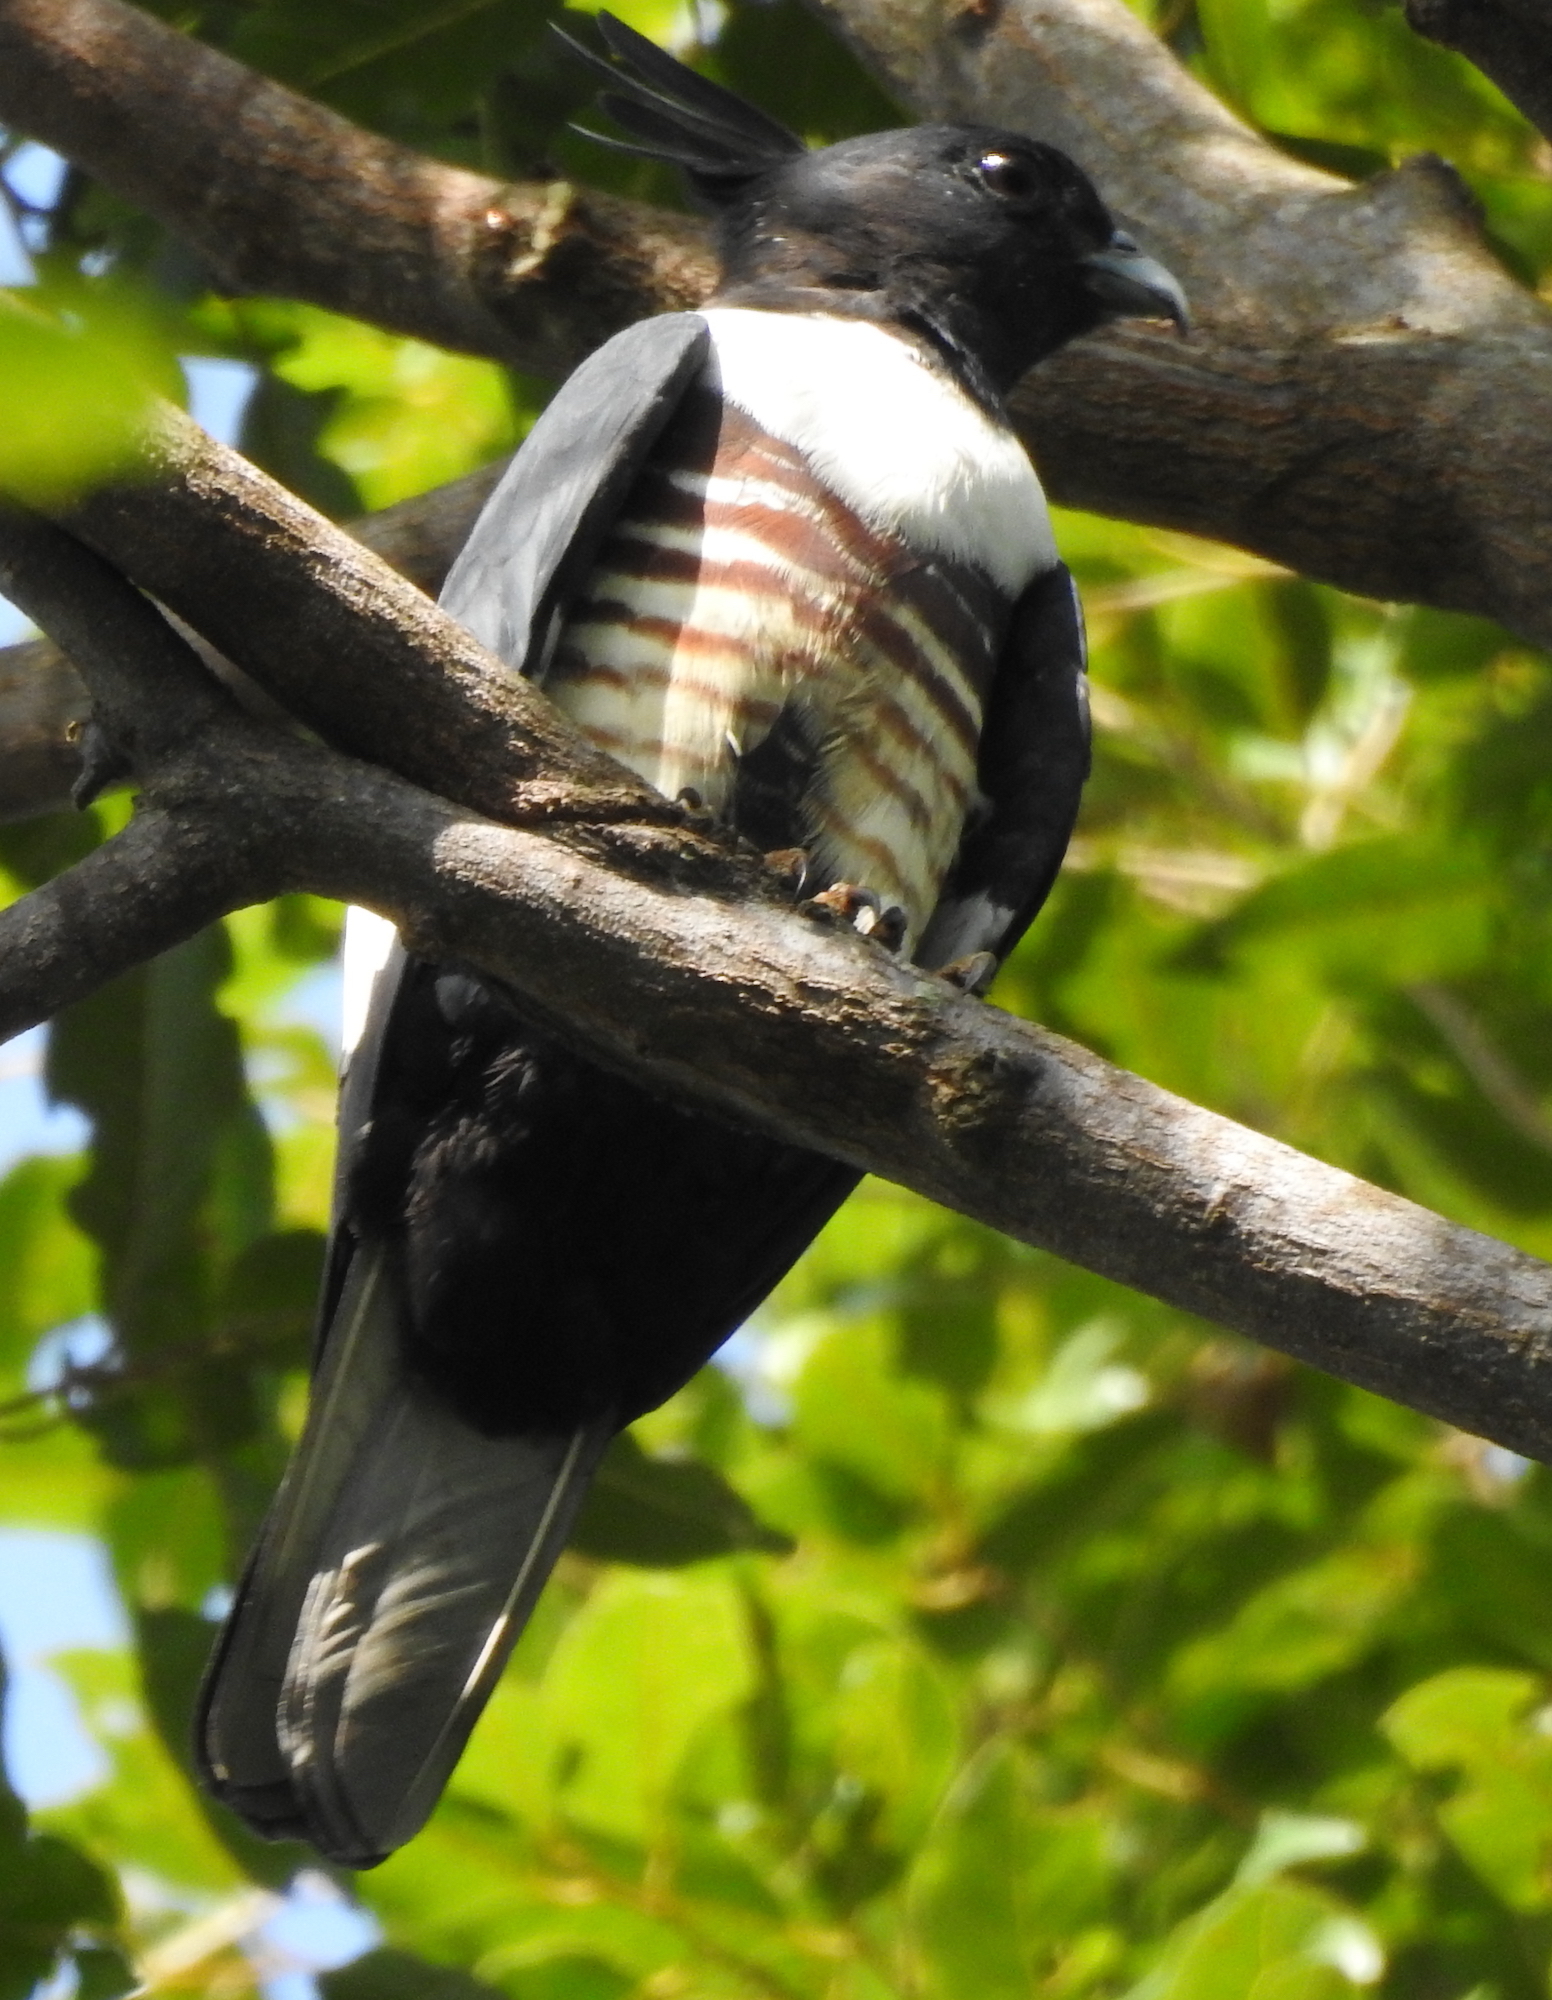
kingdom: Animalia
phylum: Chordata
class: Aves
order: Accipitriformes
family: Accipitridae
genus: Aviceda
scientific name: Aviceda leuphotes
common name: Black baza
